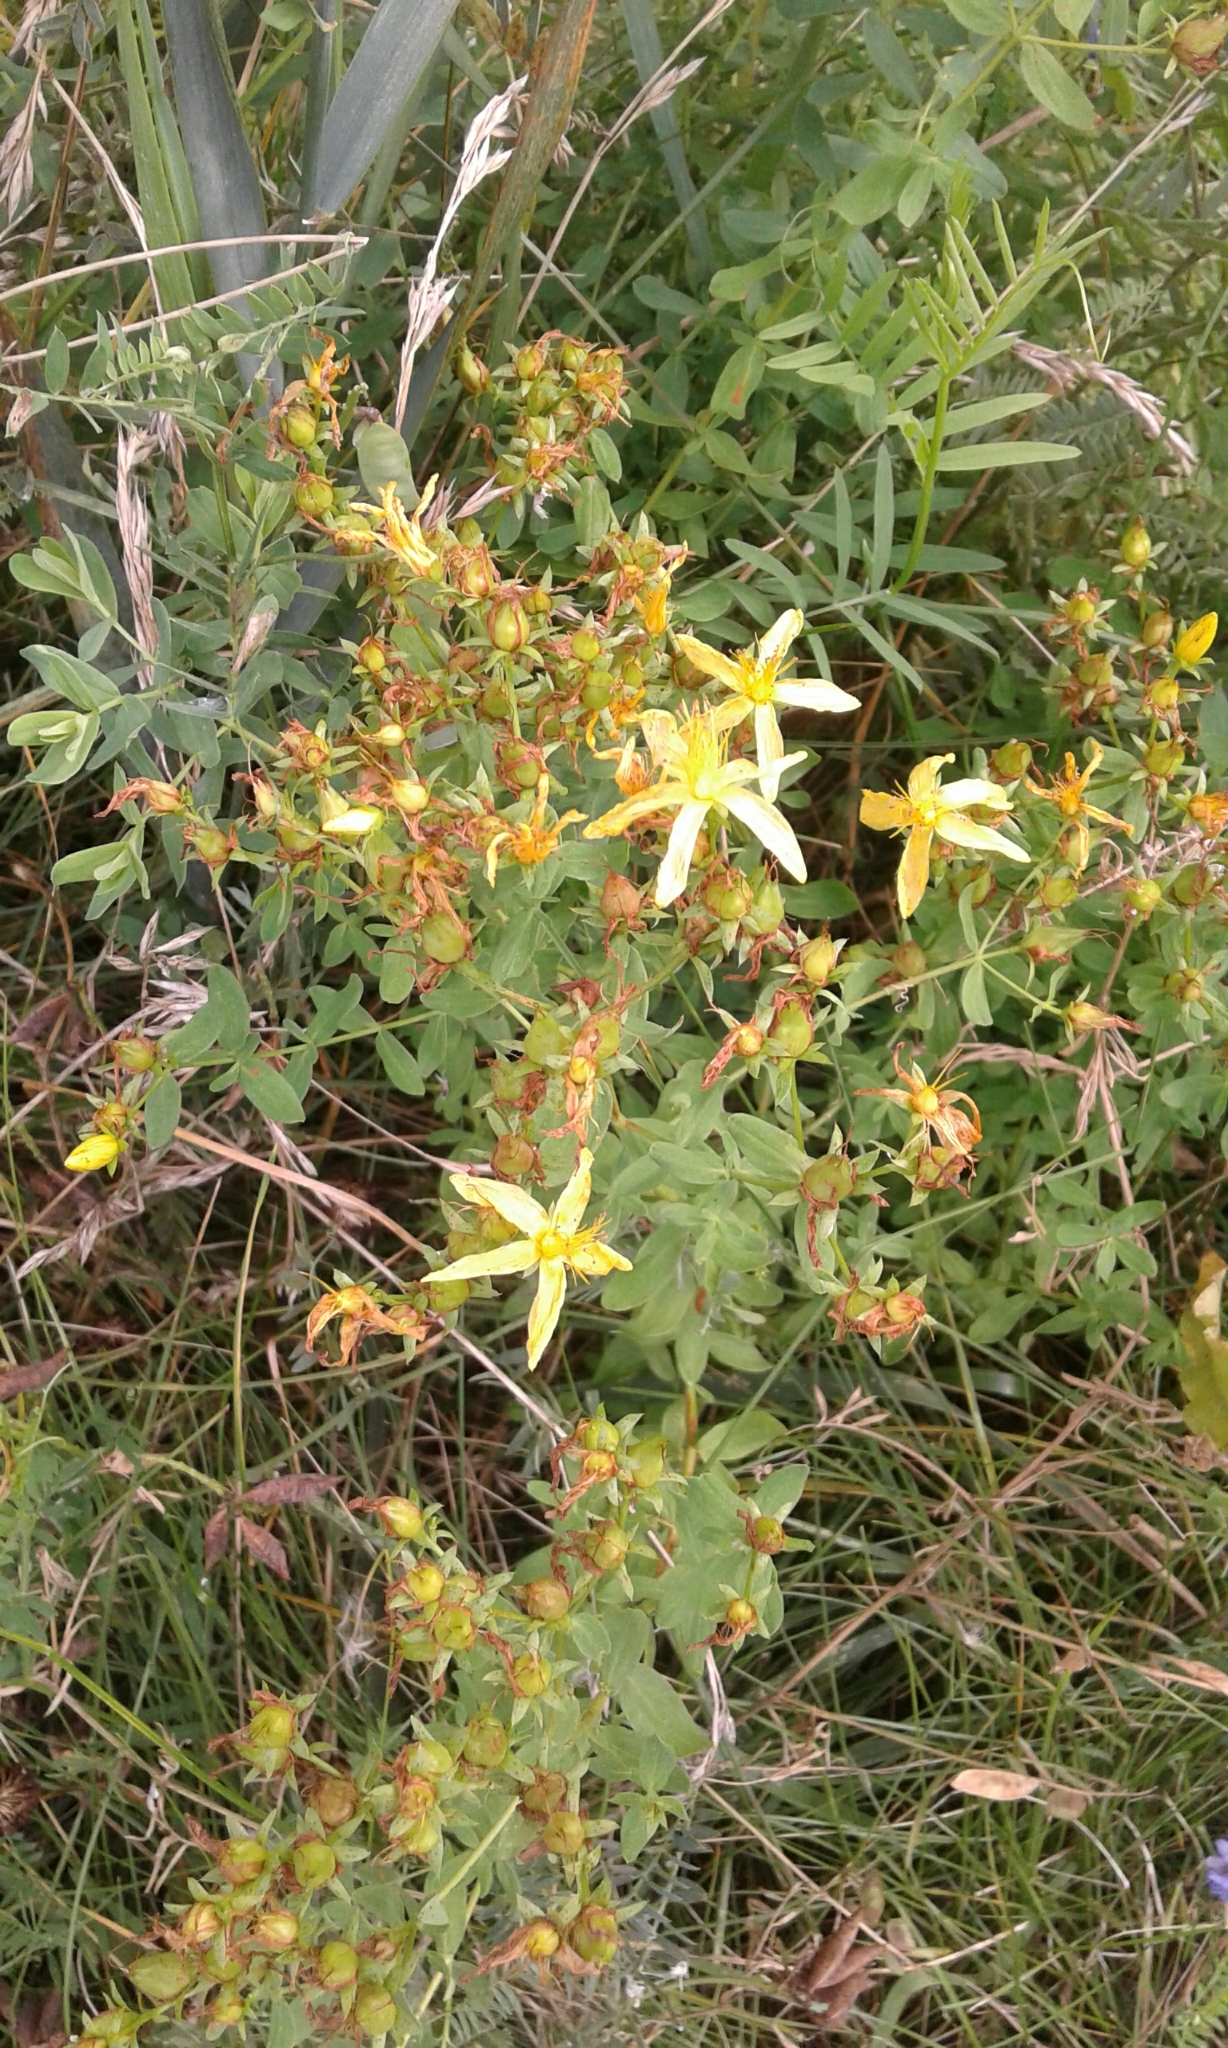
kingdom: Plantae
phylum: Tracheophyta
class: Magnoliopsida
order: Malpighiales
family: Hypericaceae
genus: Hypericum
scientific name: Hypericum perforatum
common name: Common st. johnswort
